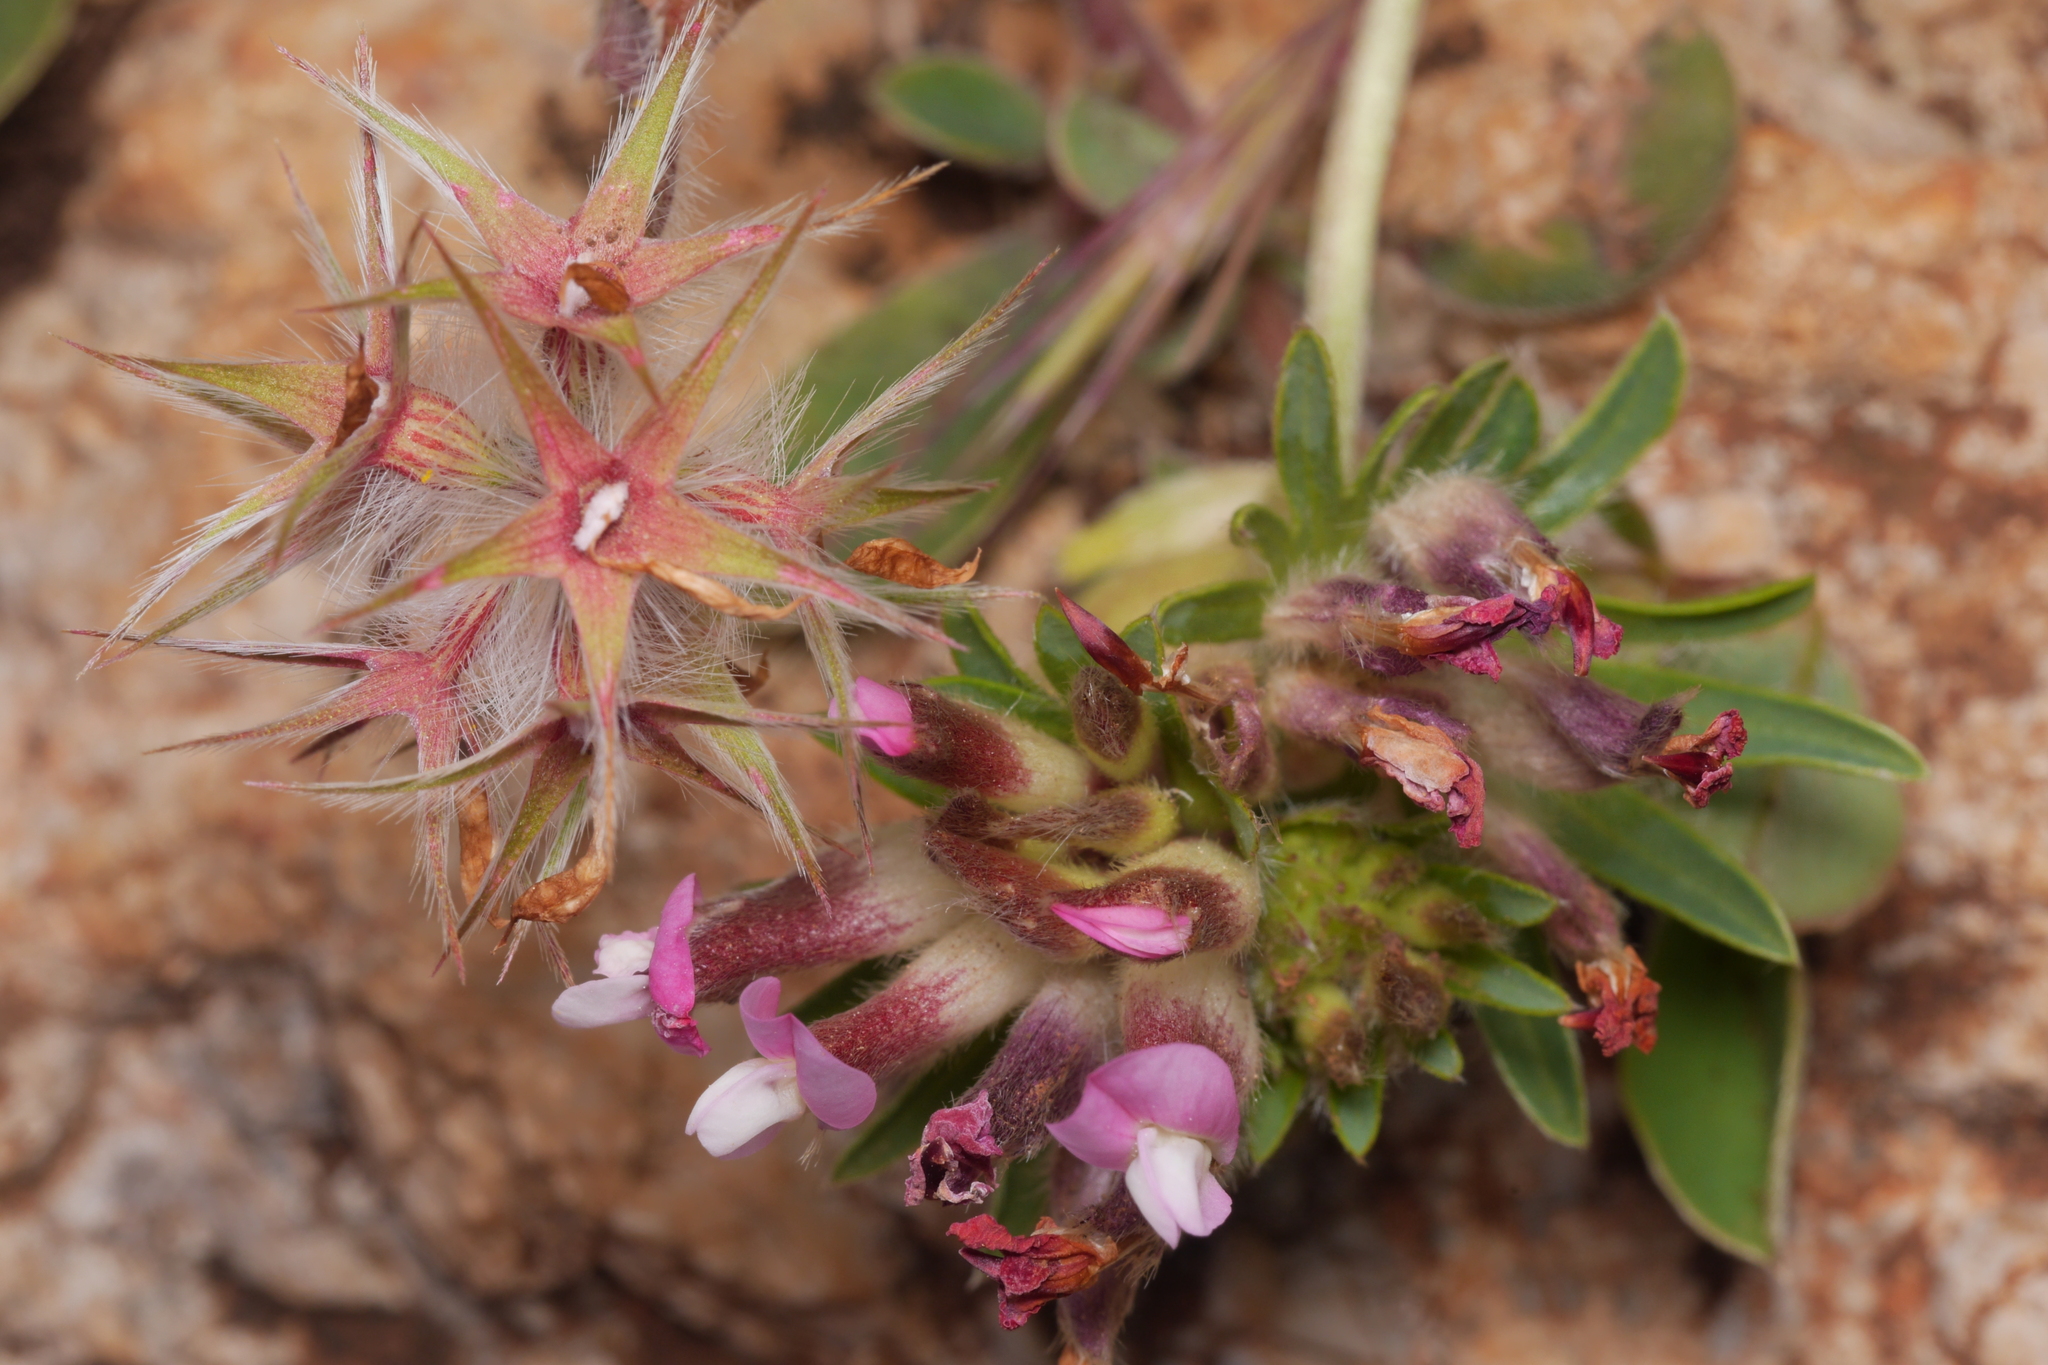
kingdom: Plantae
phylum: Tracheophyta
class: Magnoliopsida
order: Fabales
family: Fabaceae
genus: Trifolium
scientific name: Trifolium stellatum
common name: Starry clover
